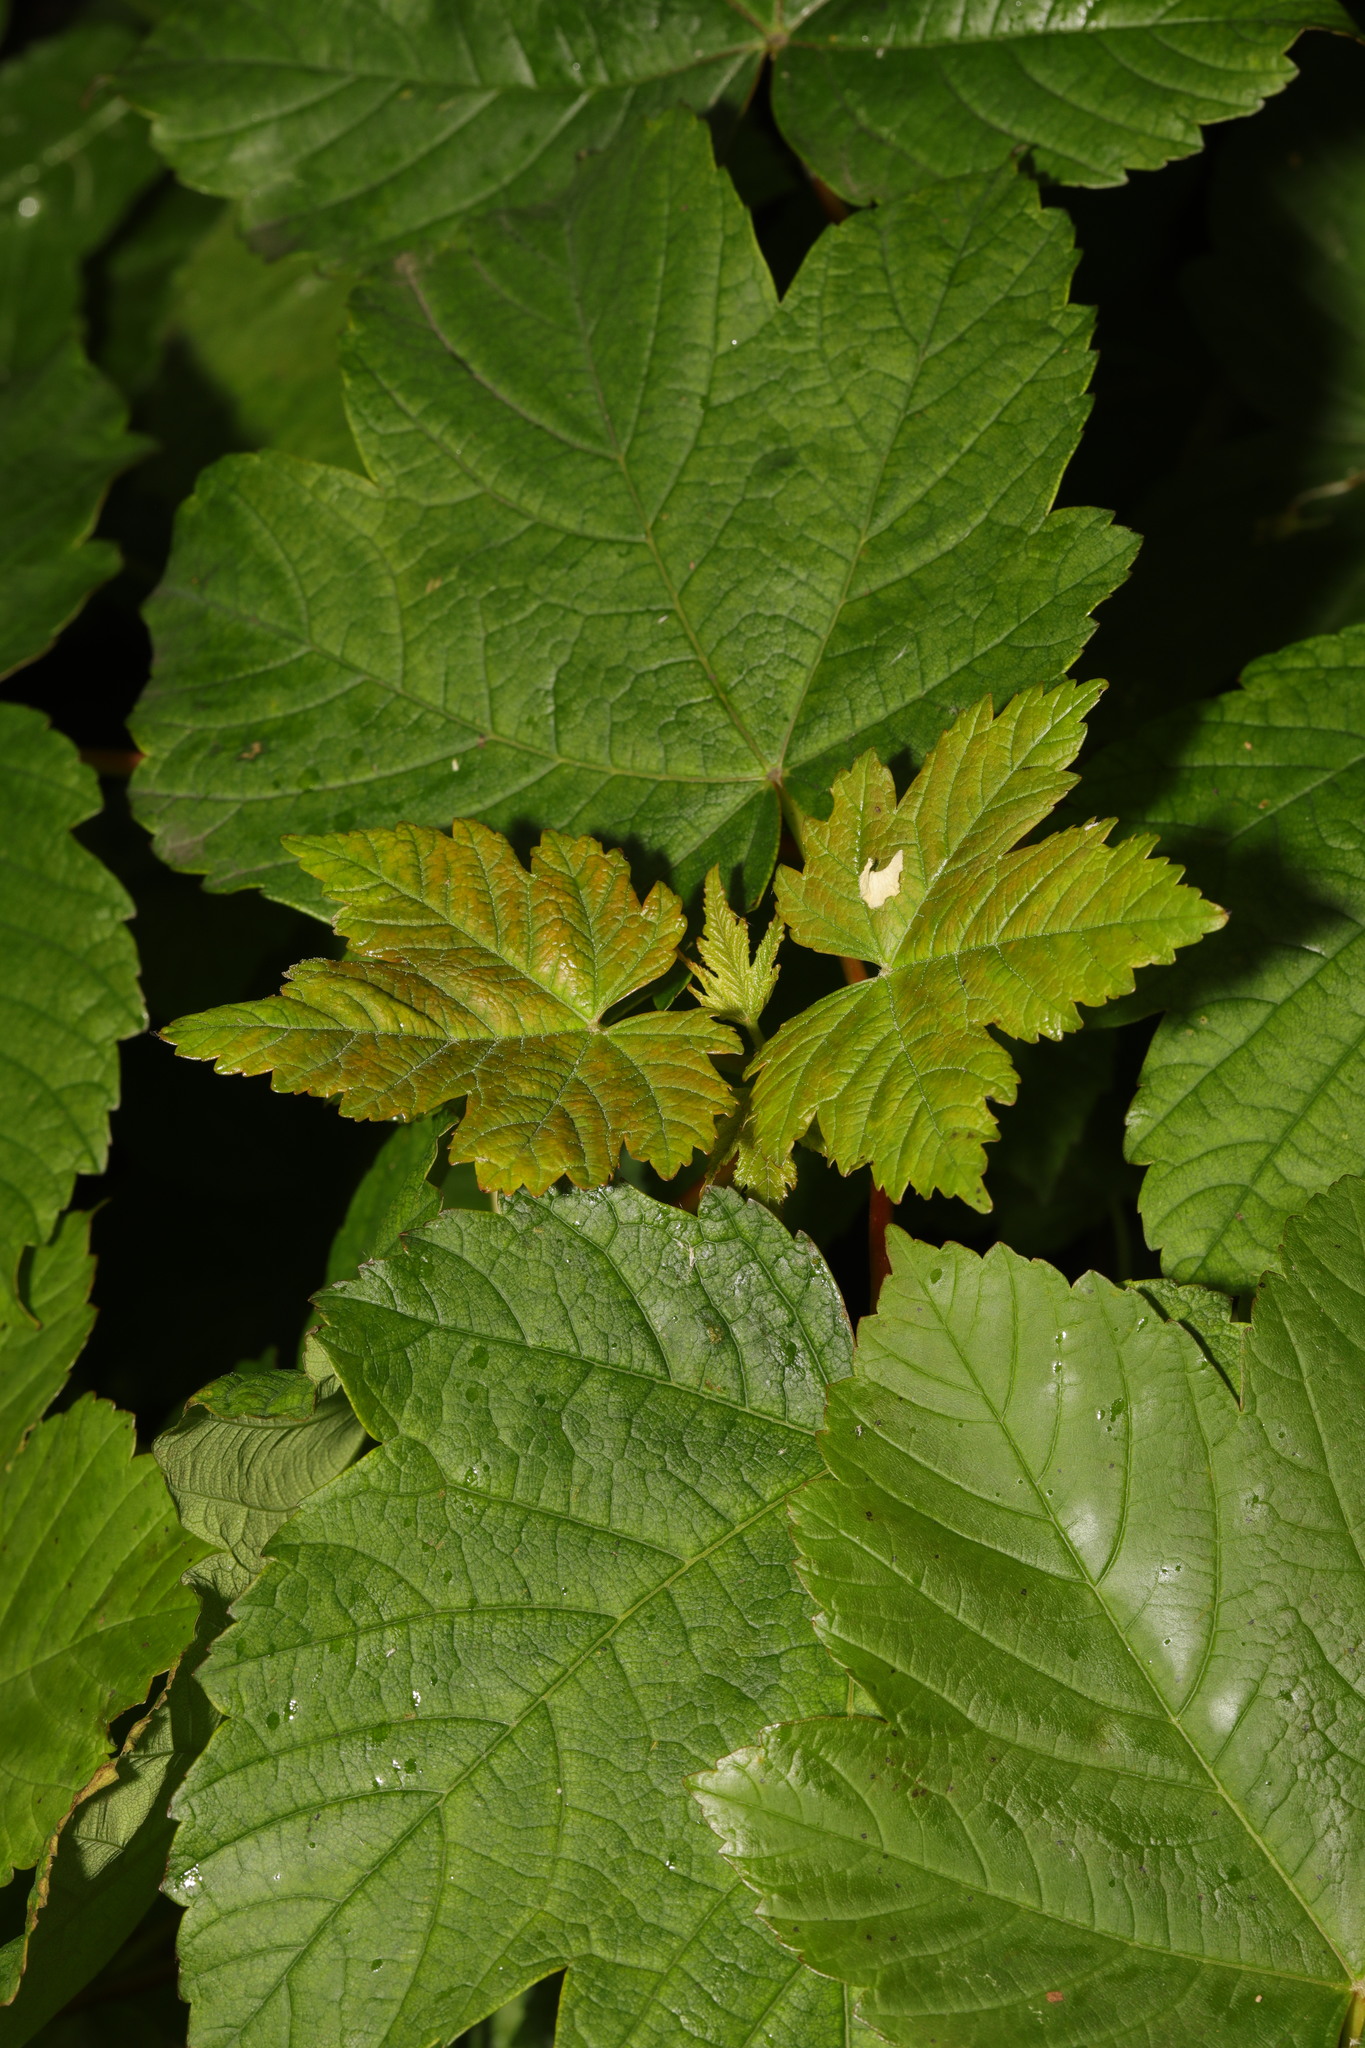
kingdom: Plantae
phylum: Tracheophyta
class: Magnoliopsida
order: Sapindales
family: Sapindaceae
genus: Acer
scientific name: Acer pseudoplatanus
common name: Sycamore
